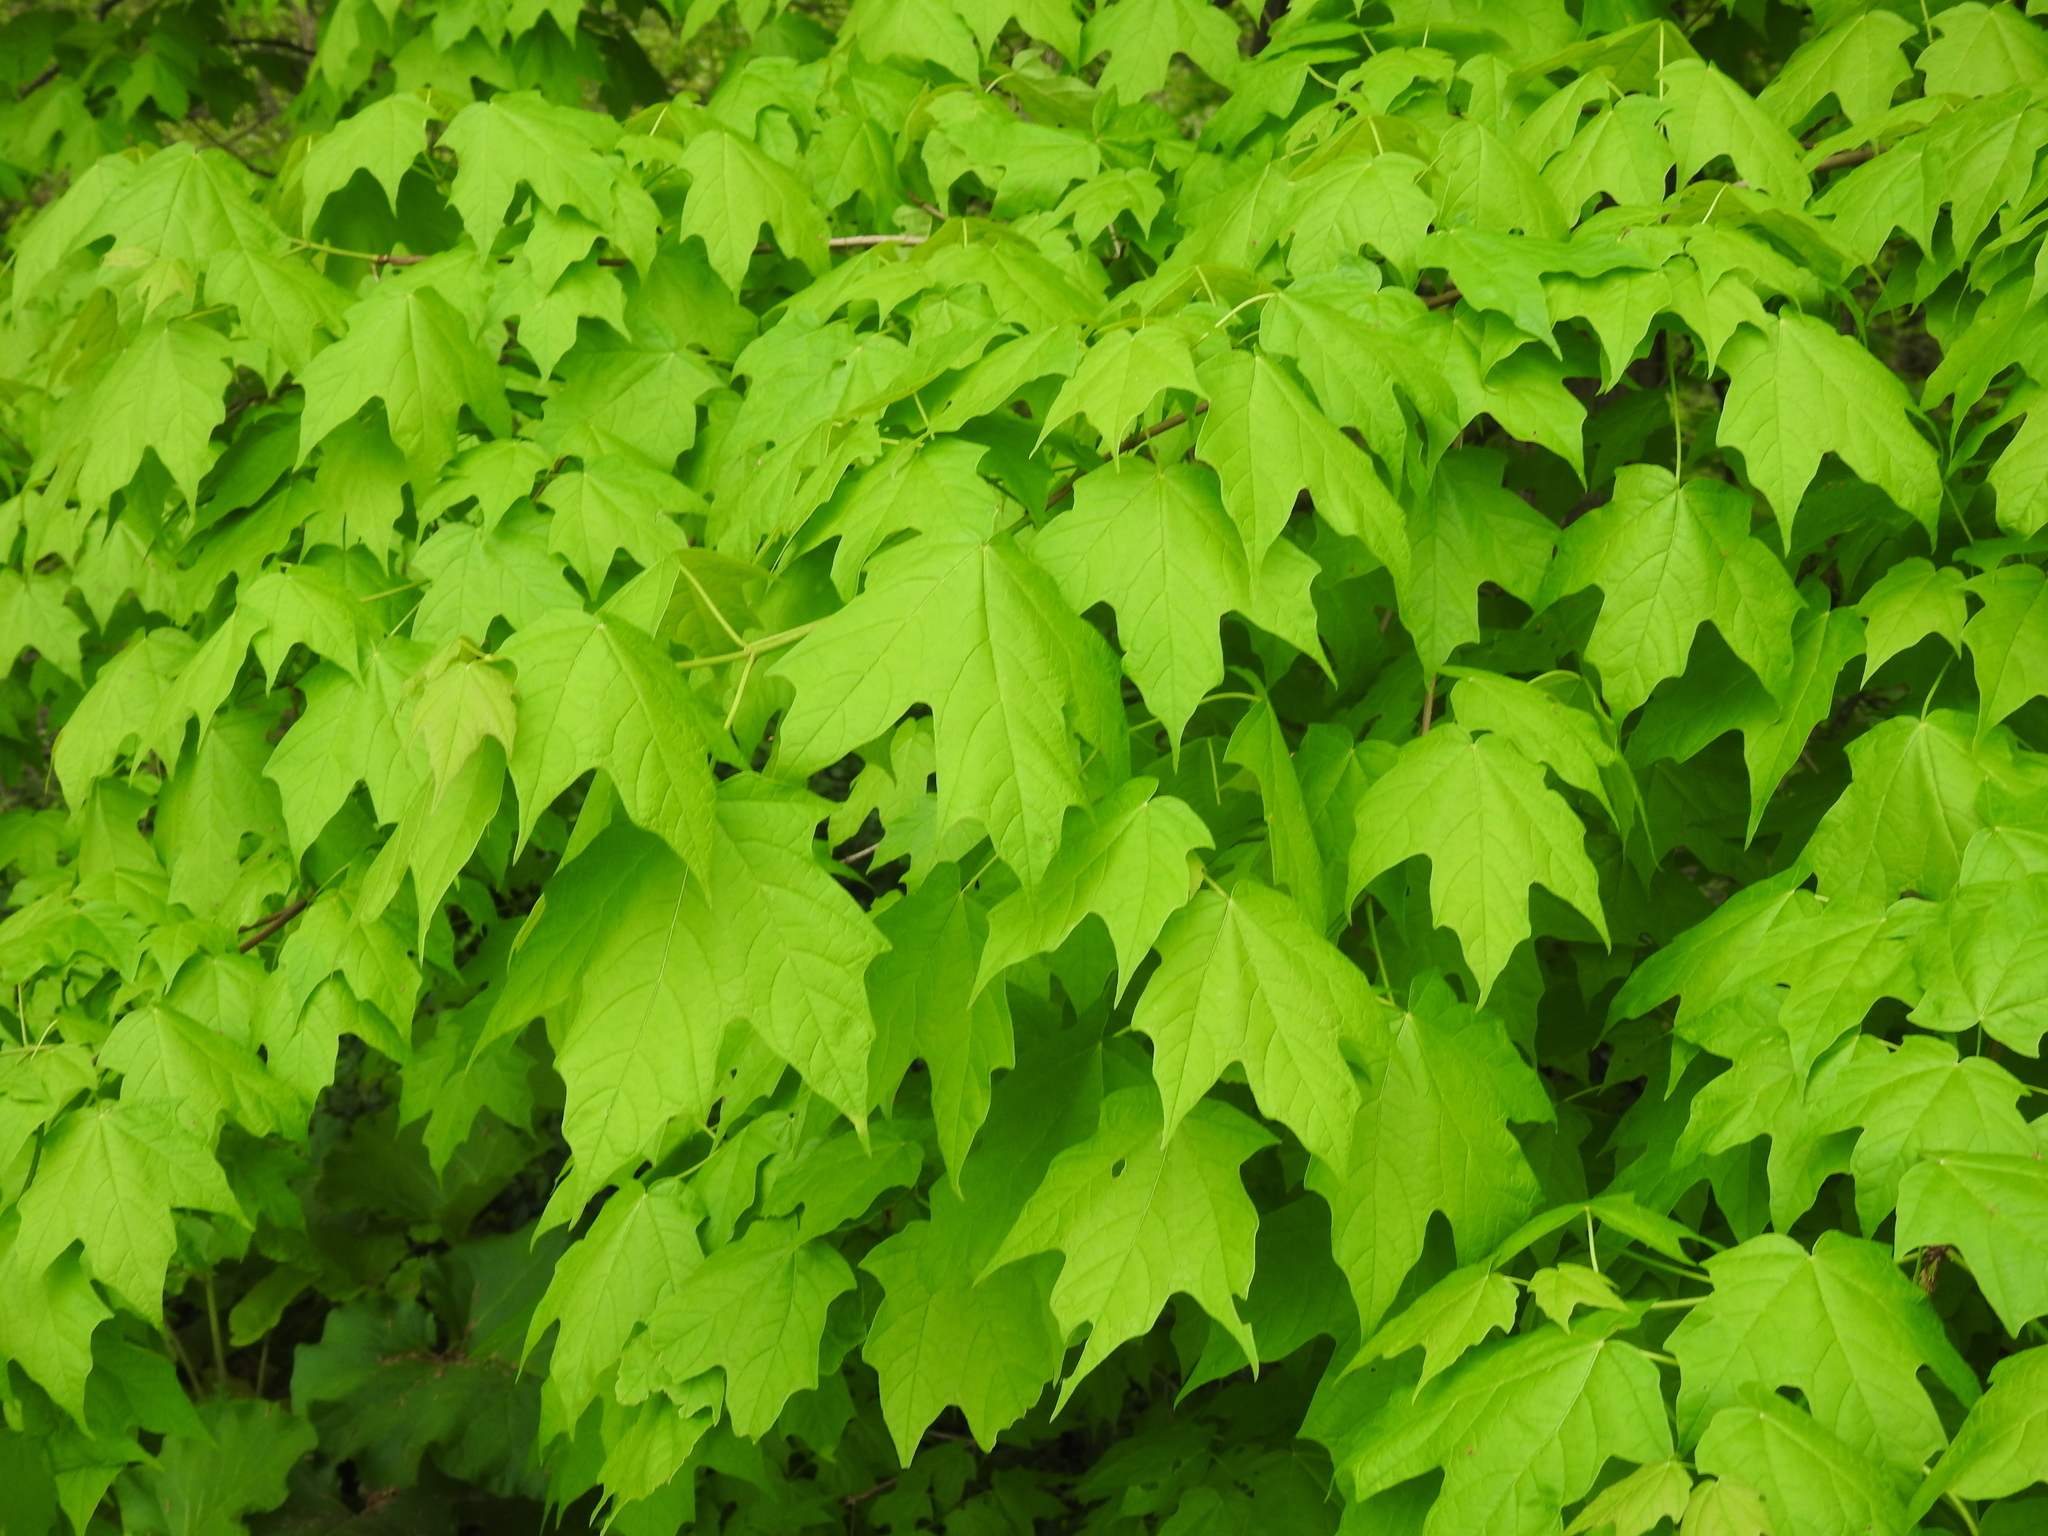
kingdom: Plantae
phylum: Tracheophyta
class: Magnoliopsida
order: Sapindales
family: Sapindaceae
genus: Acer
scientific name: Acer saccharum
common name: Sugar maple
